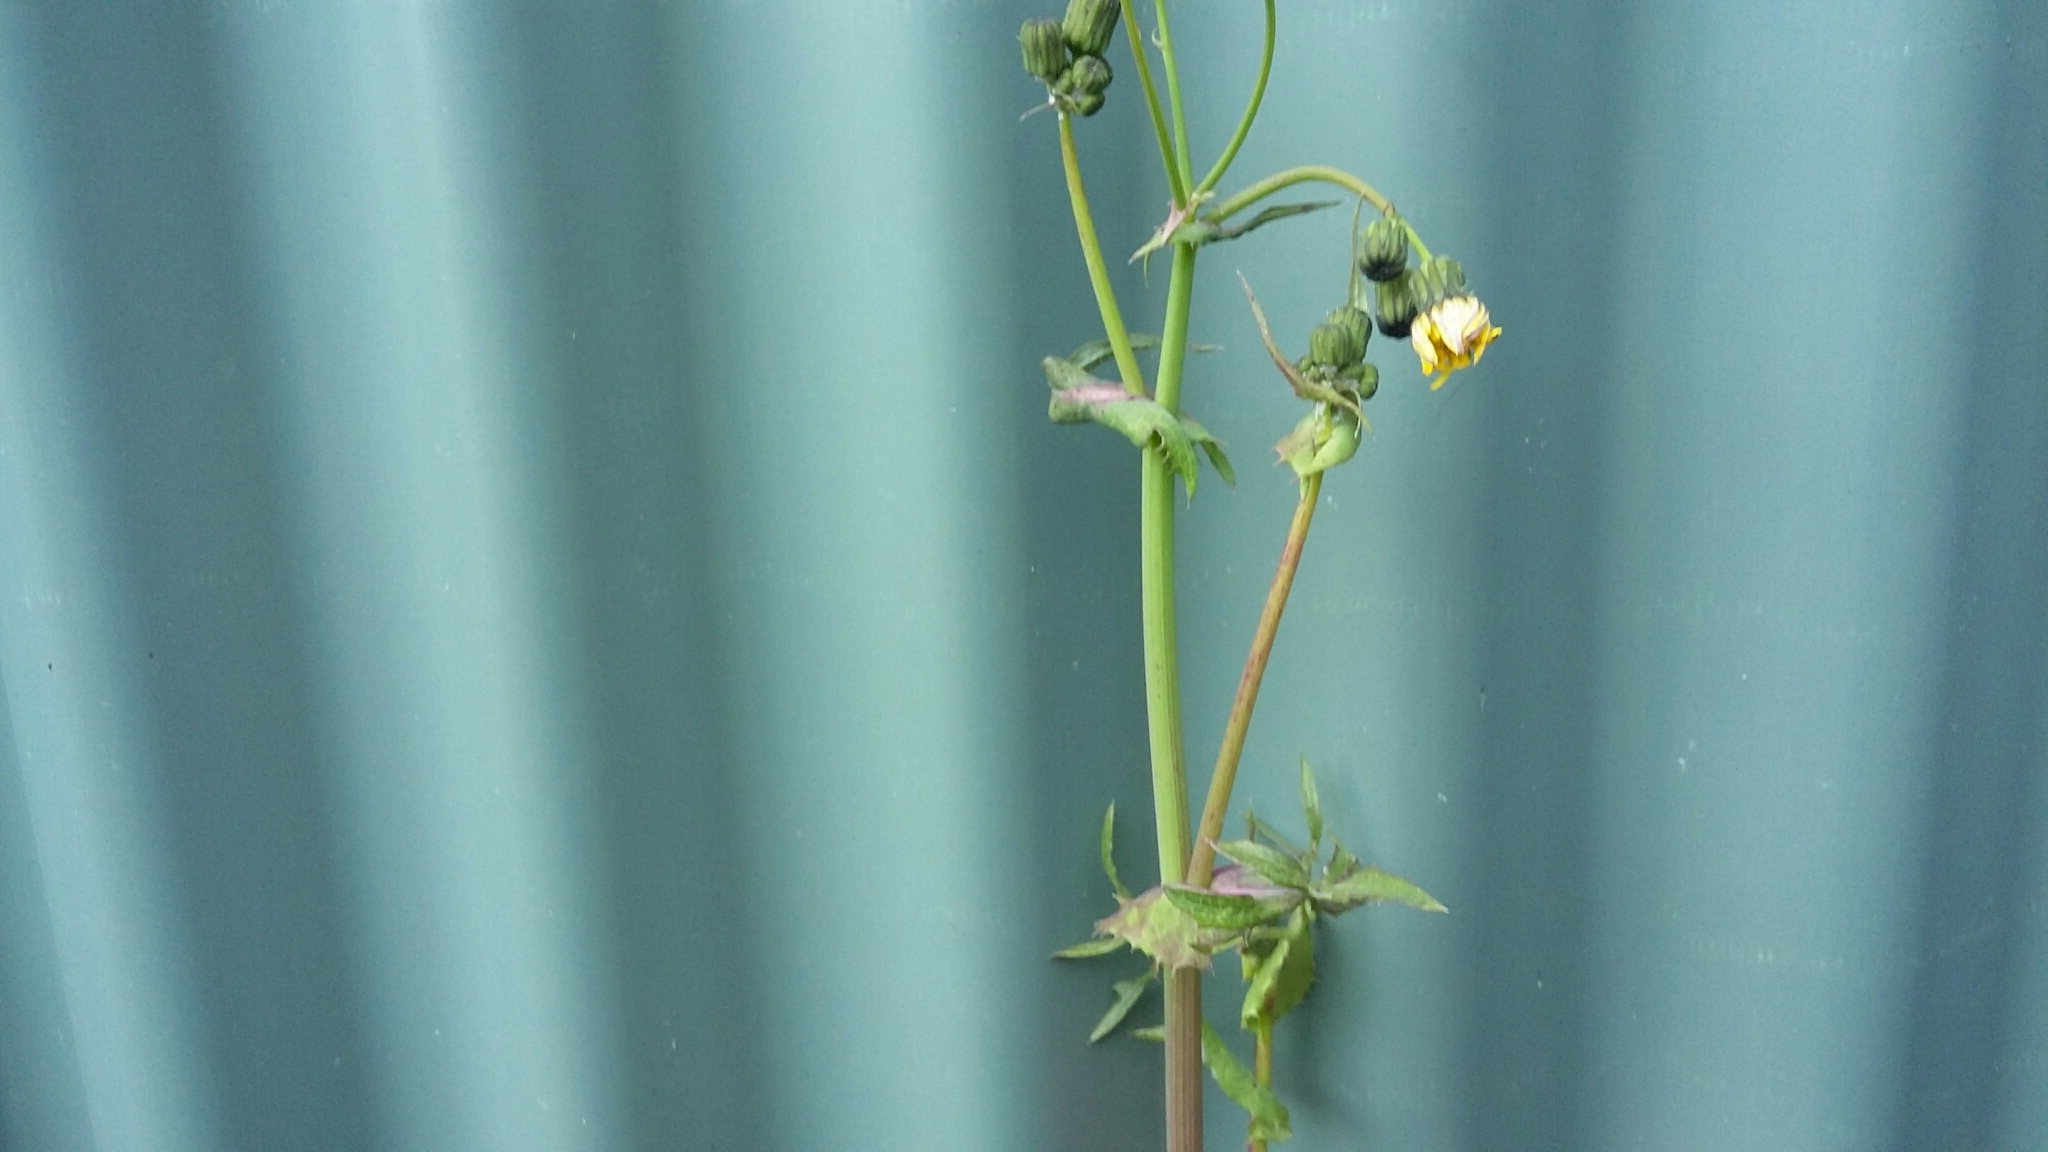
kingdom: Plantae
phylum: Tracheophyta
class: Magnoliopsida
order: Asterales
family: Asteraceae
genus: Sonchus
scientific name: Sonchus oleraceus
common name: Common sowthistle
